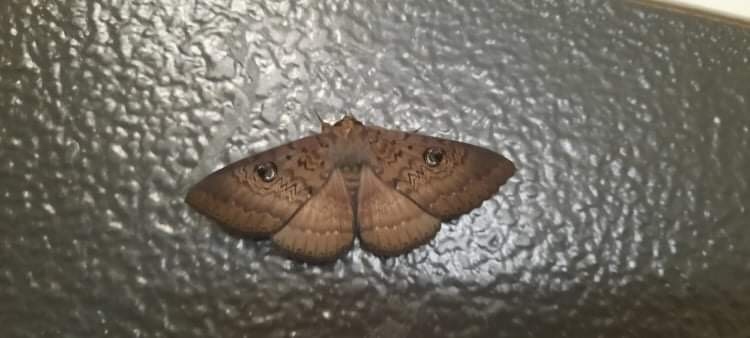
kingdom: Animalia
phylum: Arthropoda
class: Insecta
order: Lepidoptera
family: Erebidae
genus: Dasypodia
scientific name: Dasypodia cymatodes
